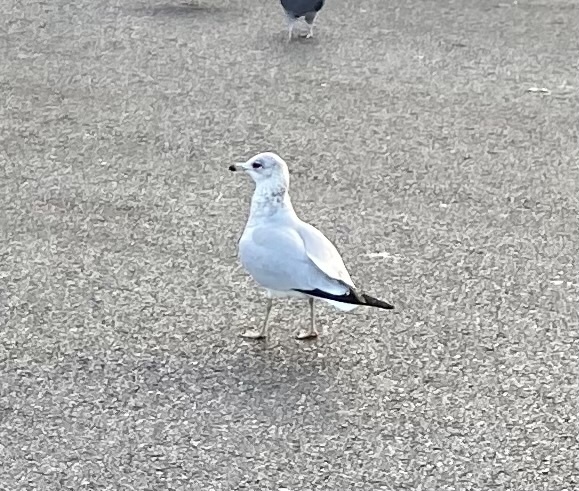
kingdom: Animalia
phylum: Chordata
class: Aves
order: Charadriiformes
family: Laridae
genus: Larus
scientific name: Larus delawarensis
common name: Ring-billed gull
